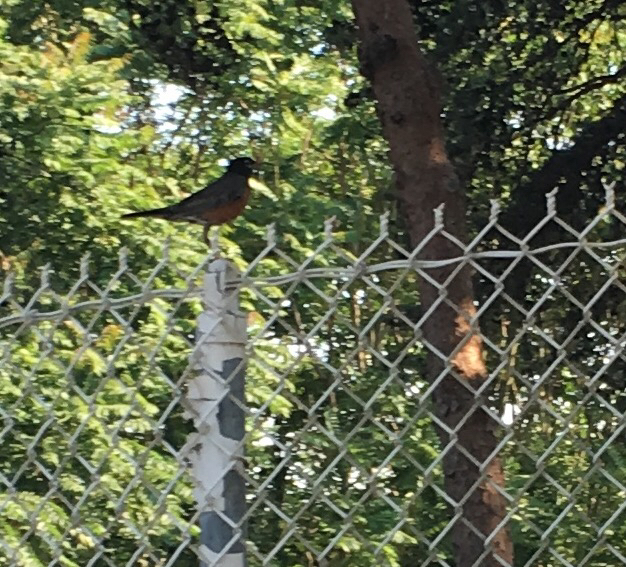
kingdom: Animalia
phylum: Chordata
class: Aves
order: Passeriformes
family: Turdidae
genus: Turdus
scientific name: Turdus migratorius
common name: American robin
